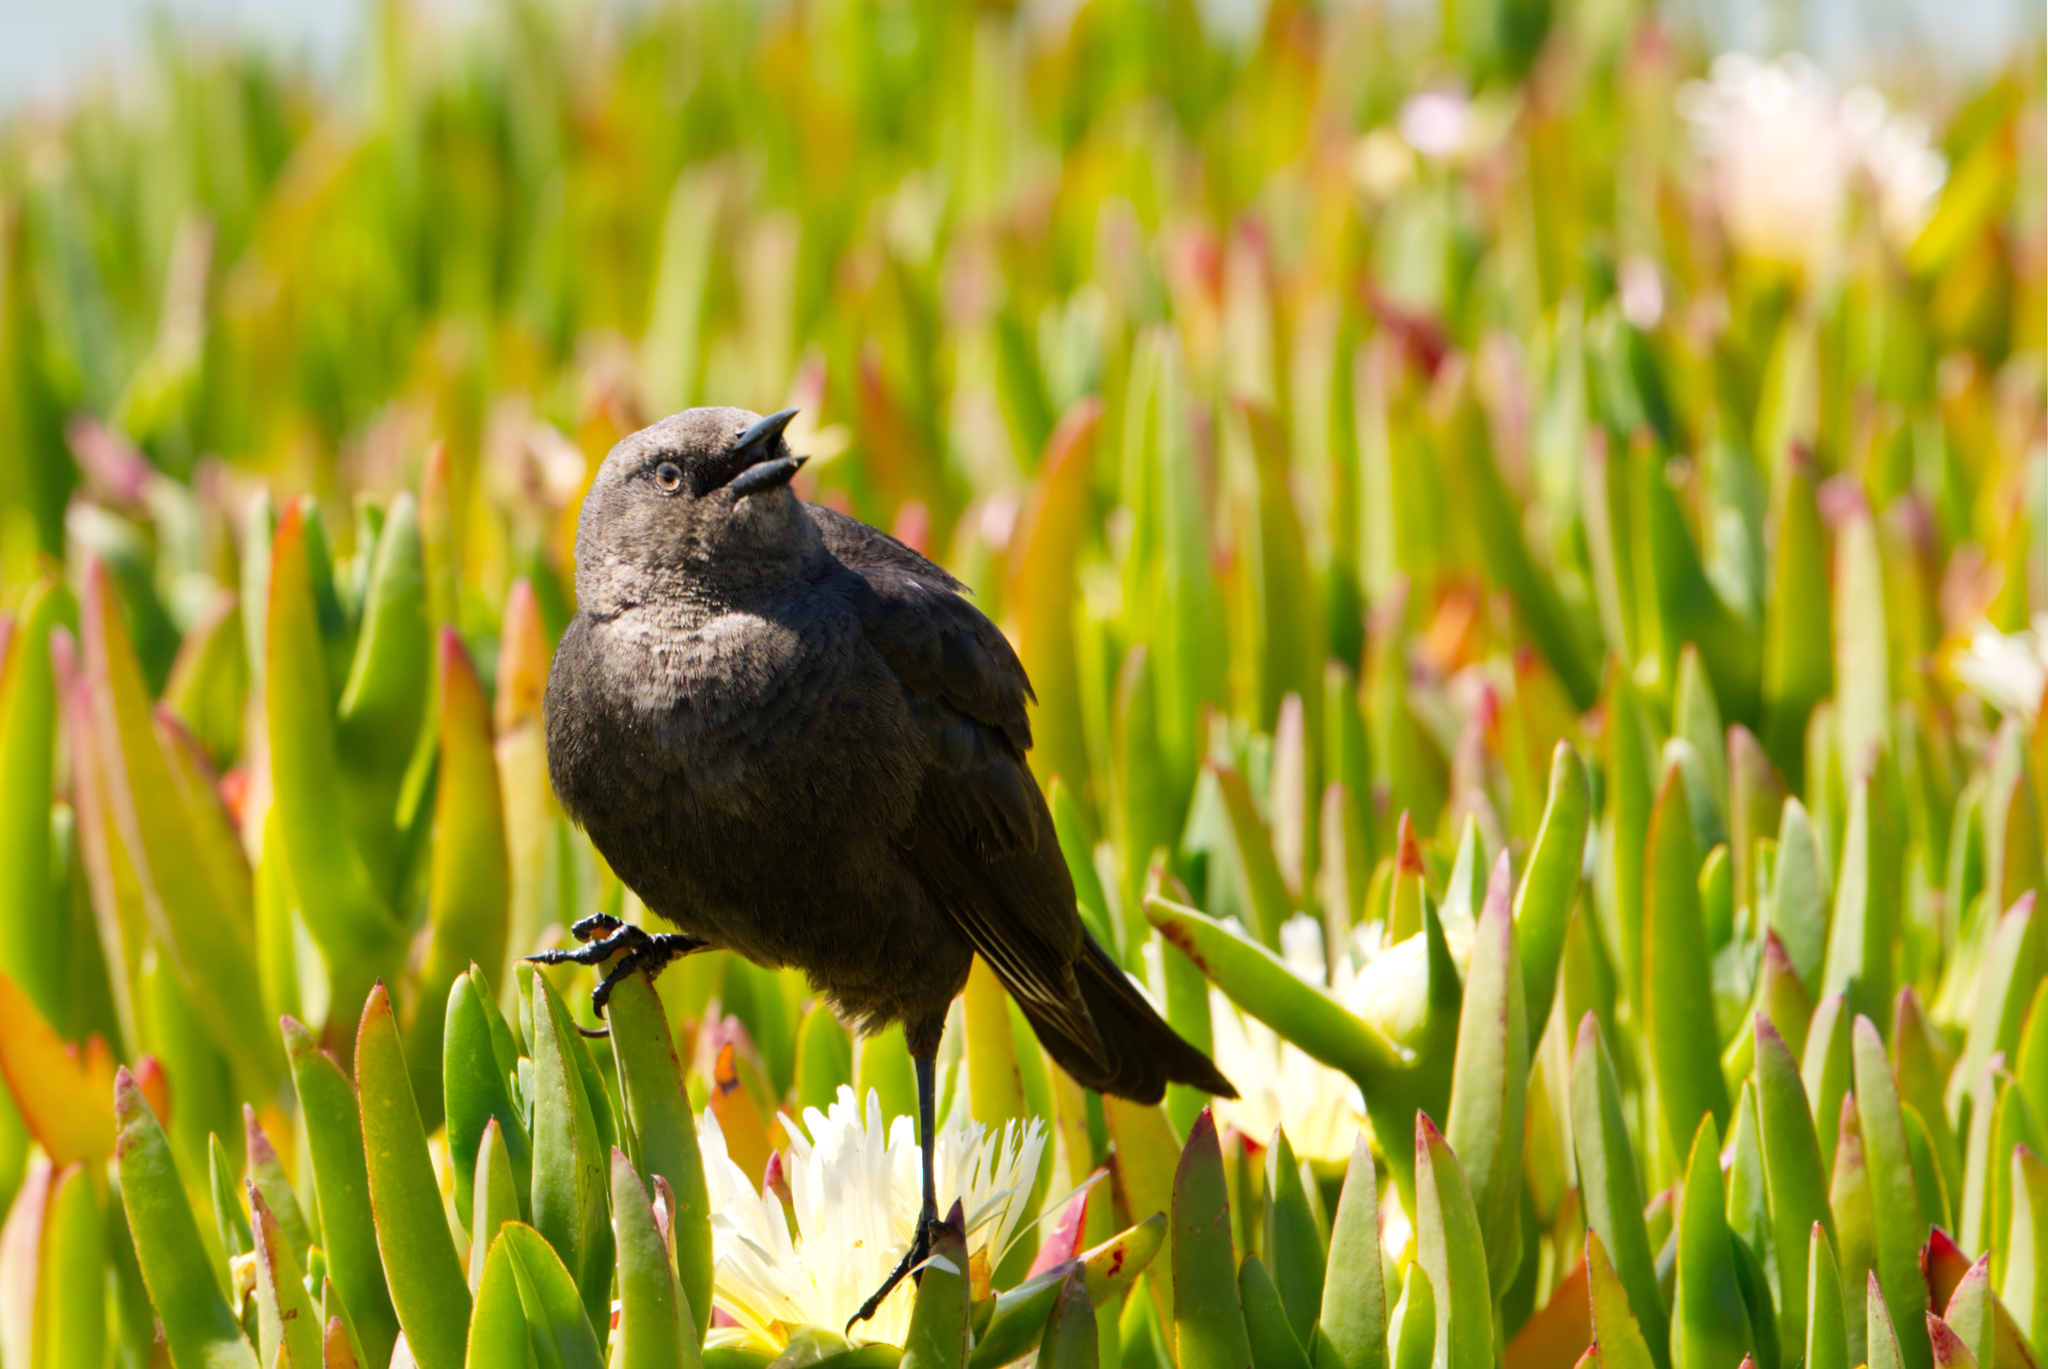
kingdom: Animalia
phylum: Chordata
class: Aves
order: Passeriformes
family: Icteridae
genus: Euphagus
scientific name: Euphagus cyanocephalus
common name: Brewer's blackbird
